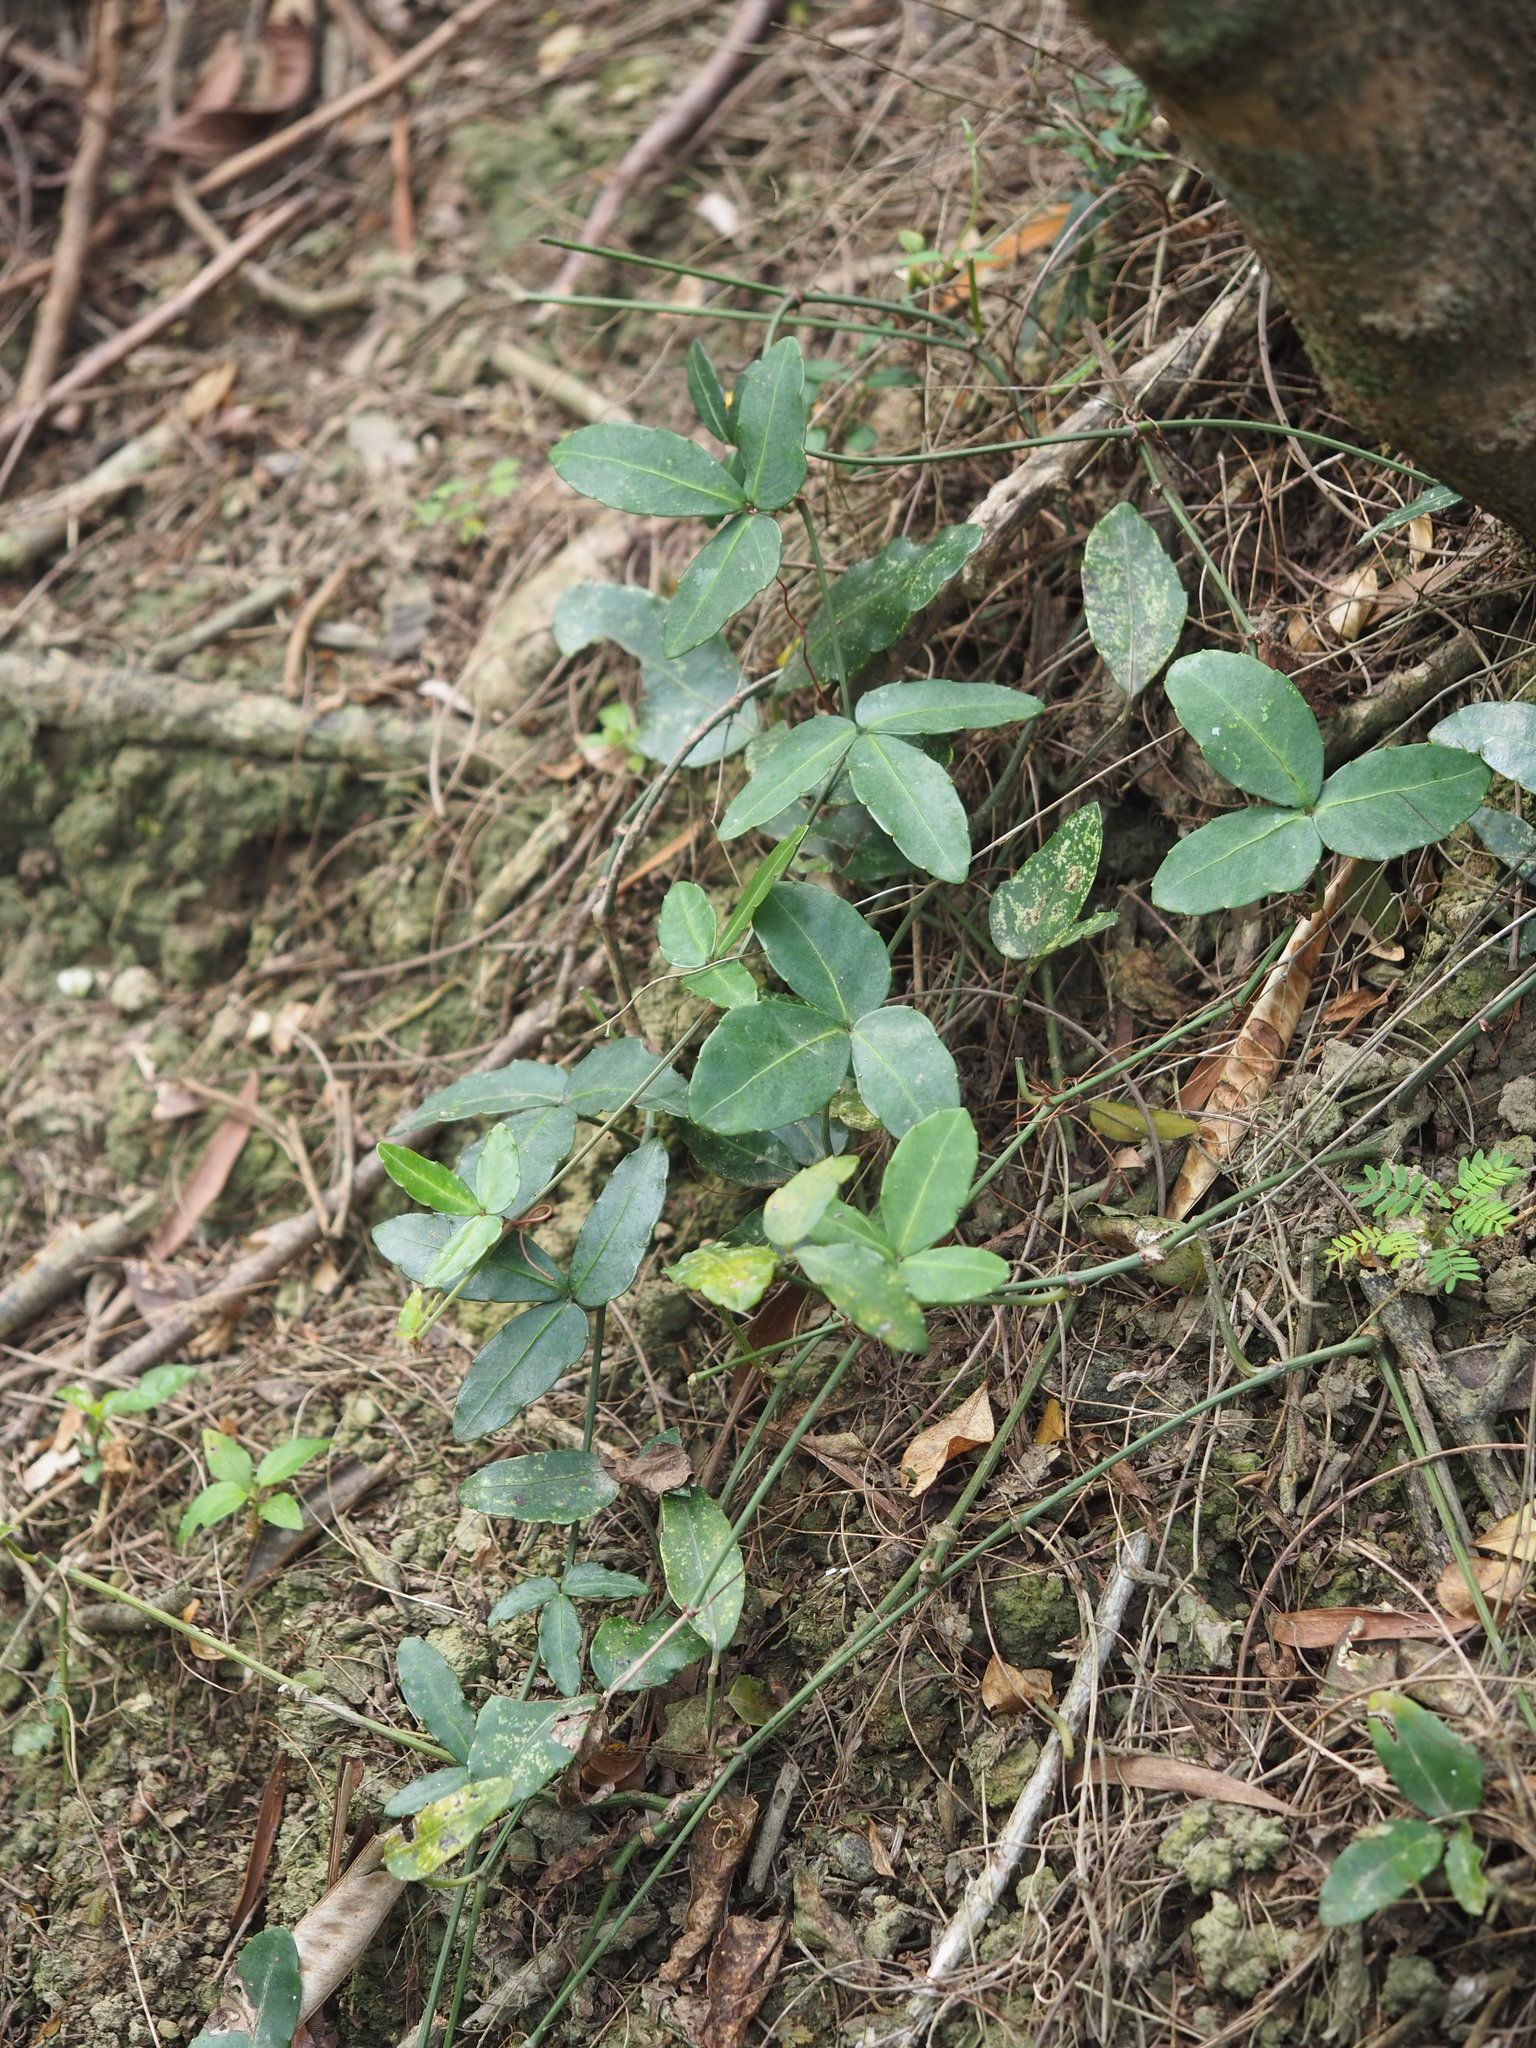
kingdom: Plantae
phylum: Tracheophyta
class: Magnoliopsida
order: Vitales
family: Vitaceae
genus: Tetrastigma
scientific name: Tetrastigma formosanum
